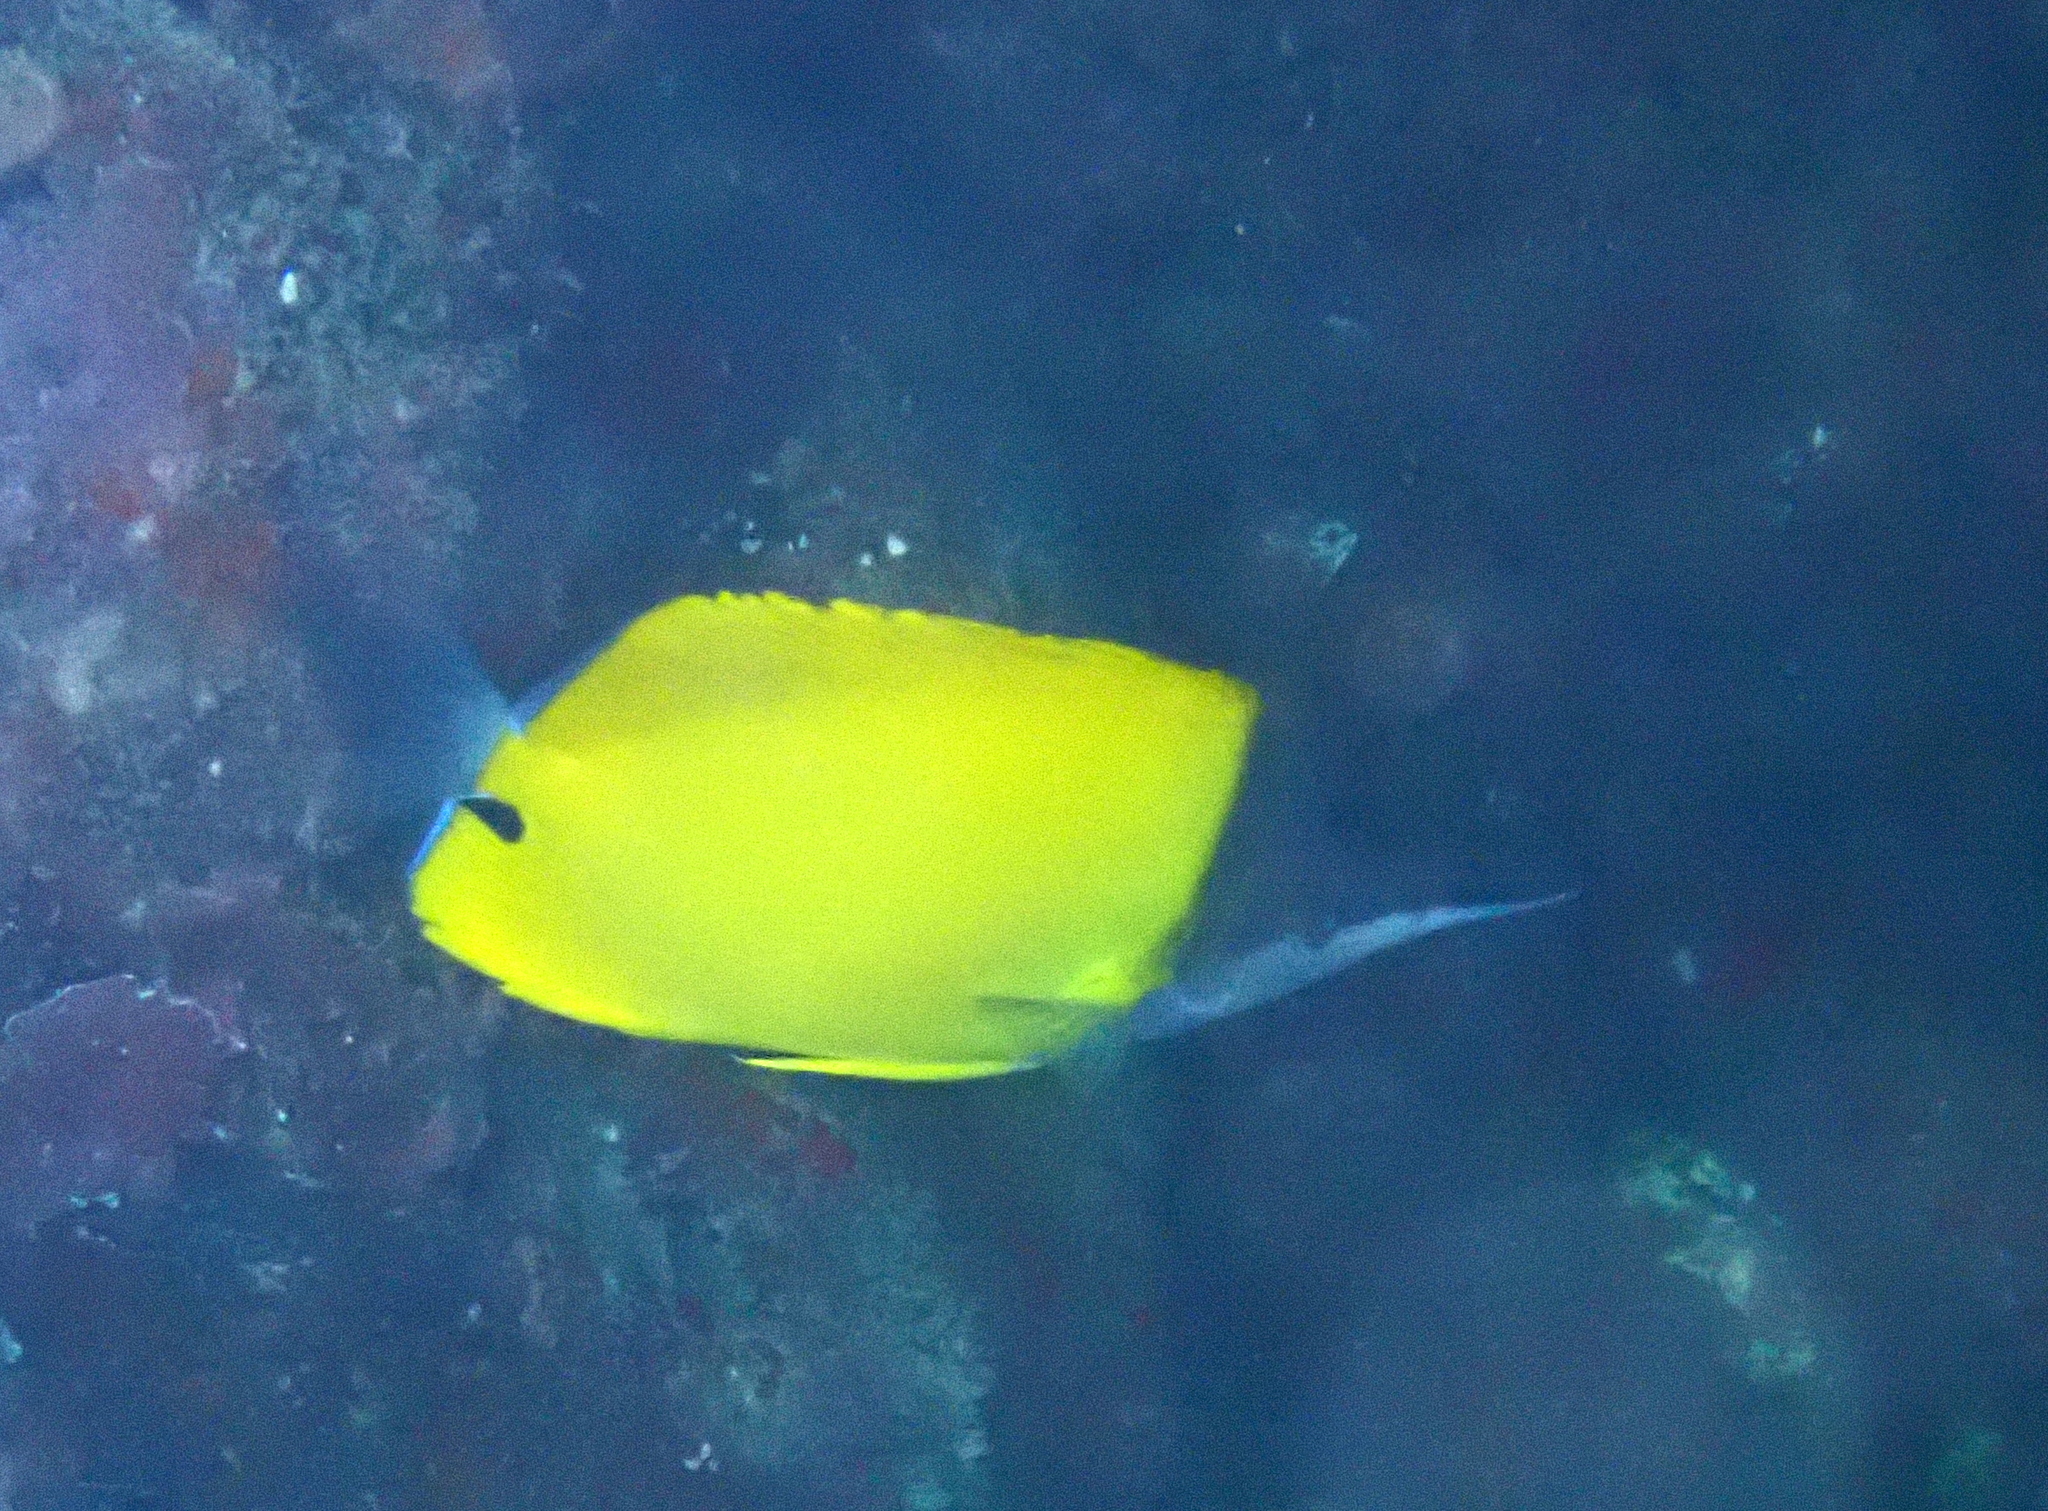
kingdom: Animalia
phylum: Chordata
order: Perciformes
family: Chaetodontidae
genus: Forcipiger
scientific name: Forcipiger flavissimus
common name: Forcepsfish
